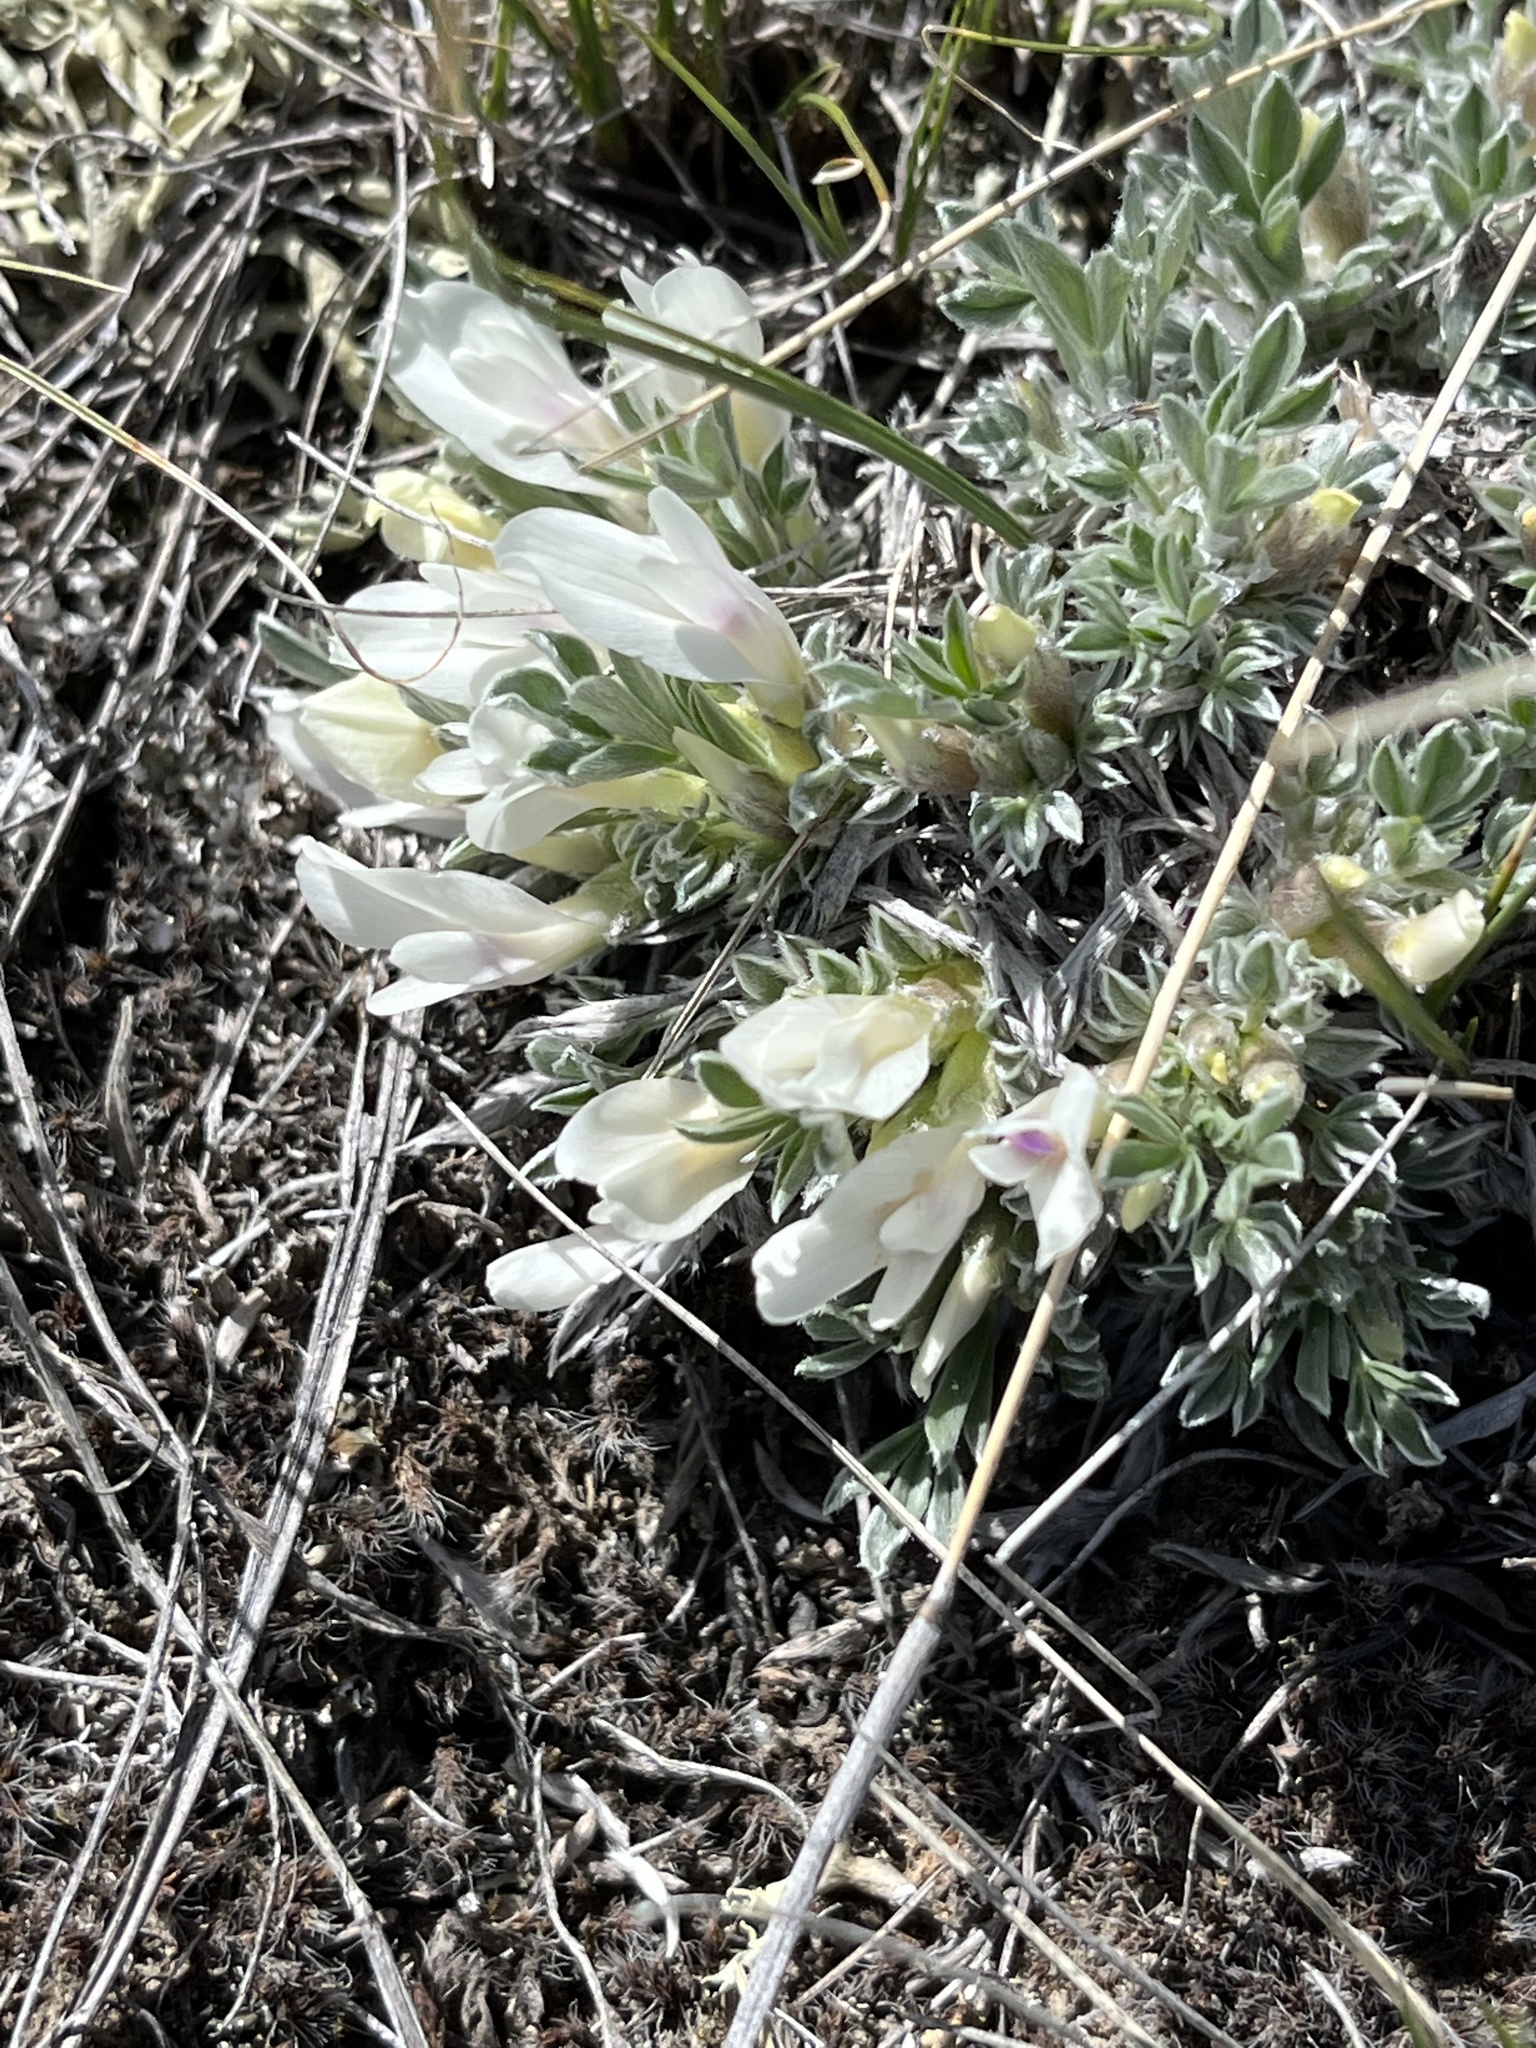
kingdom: Plantae
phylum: Tracheophyta
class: Magnoliopsida
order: Fabales
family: Fabaceae
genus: Astragalus
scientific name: Astragalus gilviflorus
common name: Cushion milk-vetch
